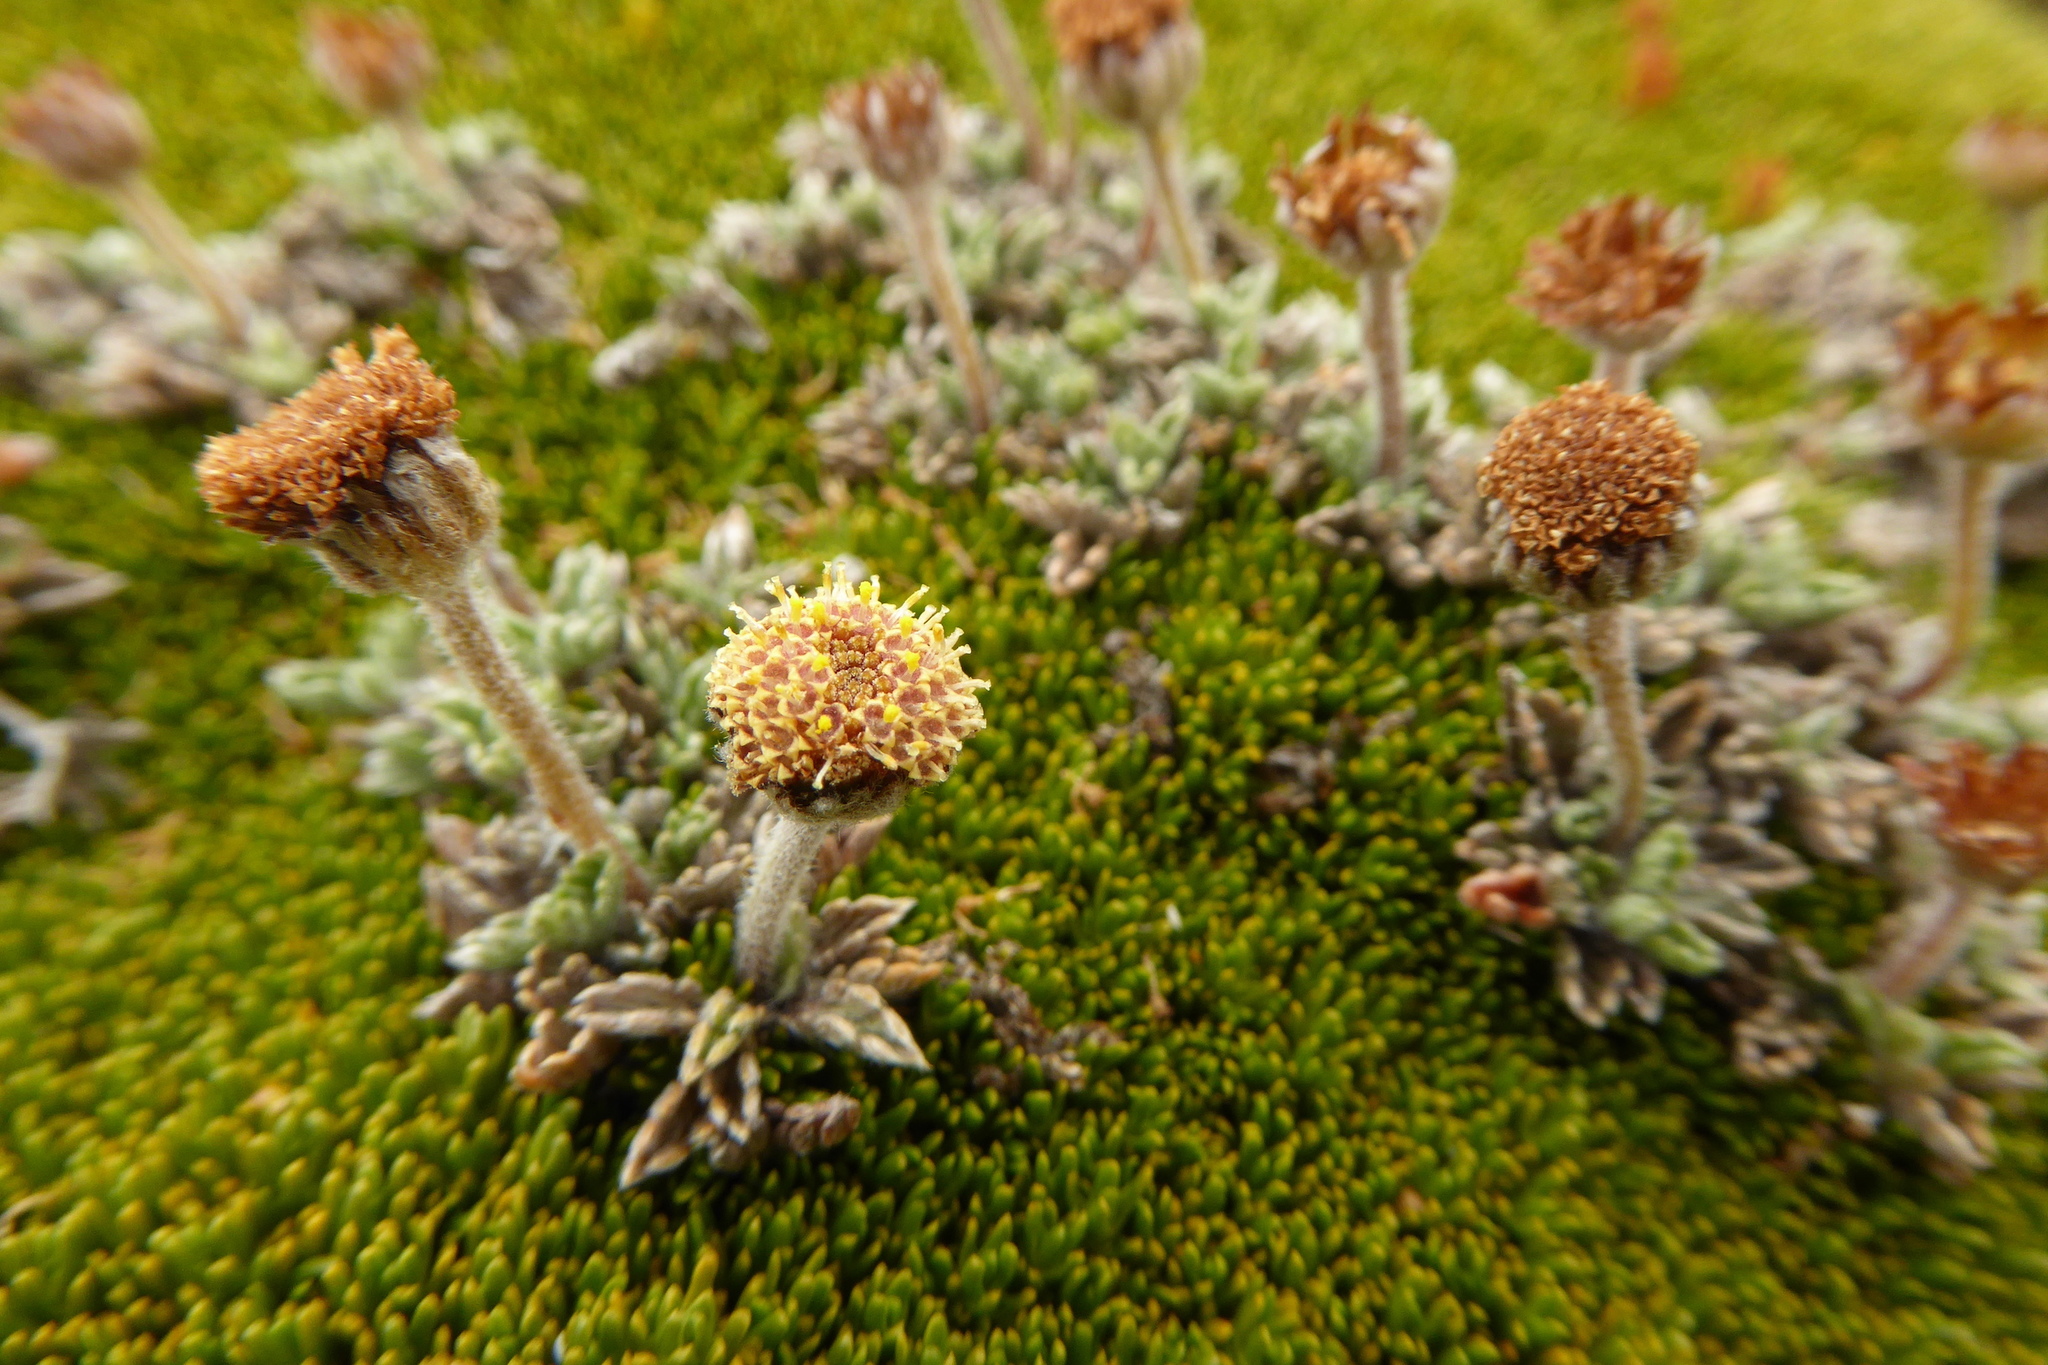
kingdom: Plantae
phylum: Tracheophyta
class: Magnoliopsida
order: Asterales
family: Asteraceae
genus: Leptinella
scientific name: Leptinella albida
